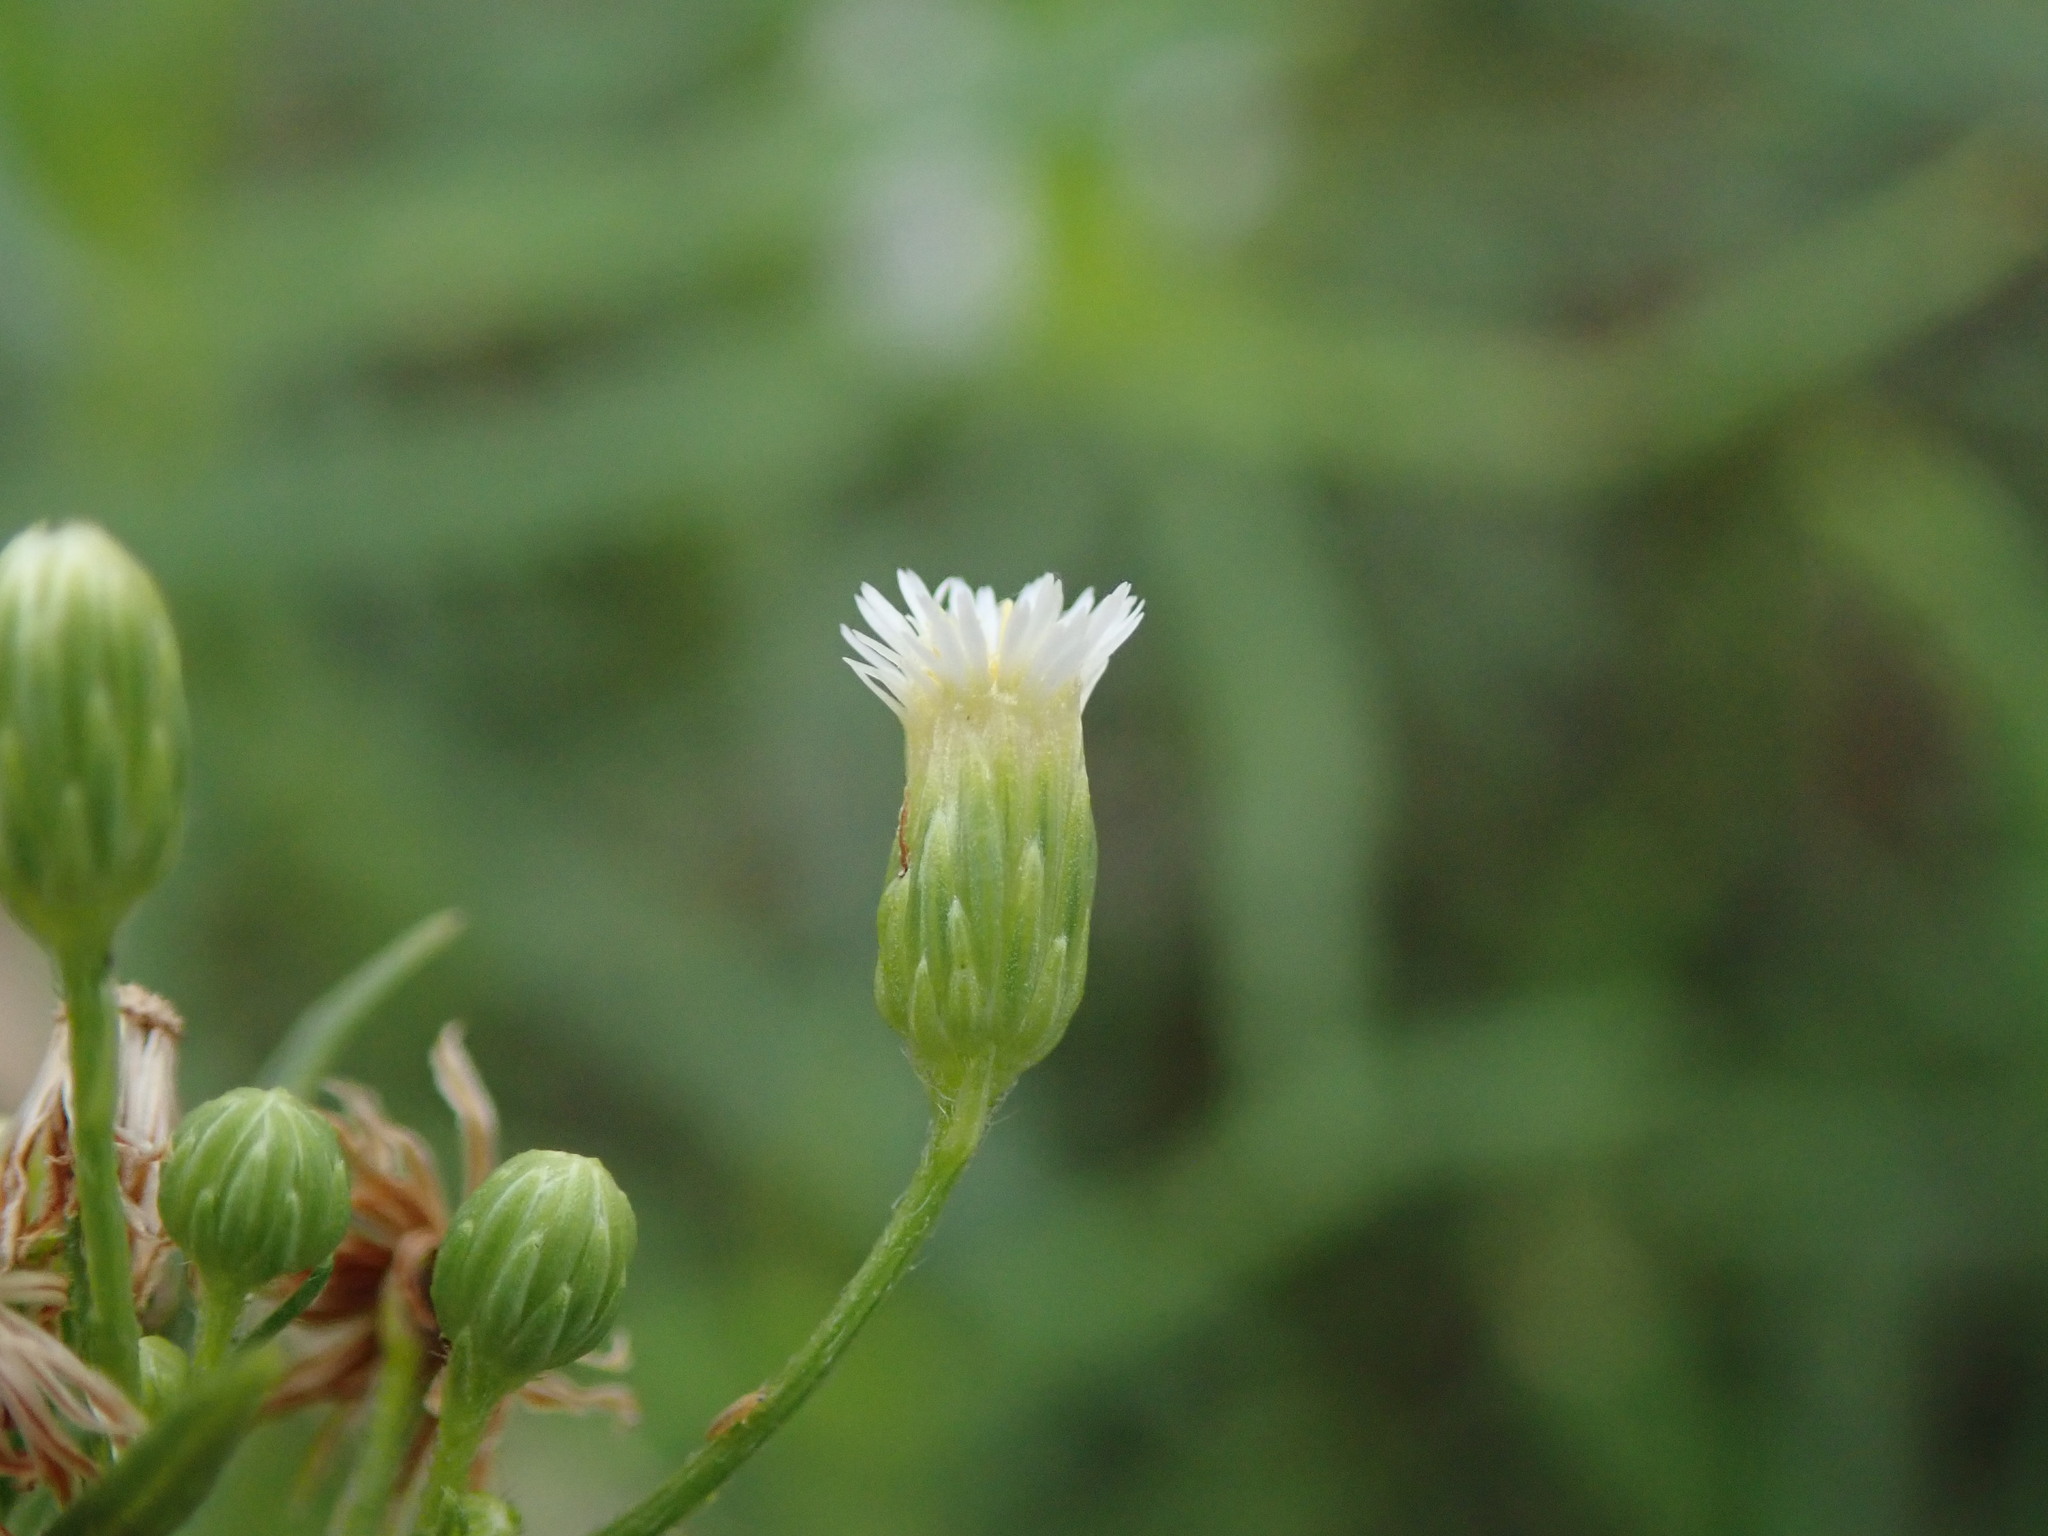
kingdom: Plantae
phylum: Tracheophyta
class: Magnoliopsida
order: Asterales
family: Asteraceae
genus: Erigeron
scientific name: Erigeron canadensis
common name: Canadian fleabane
